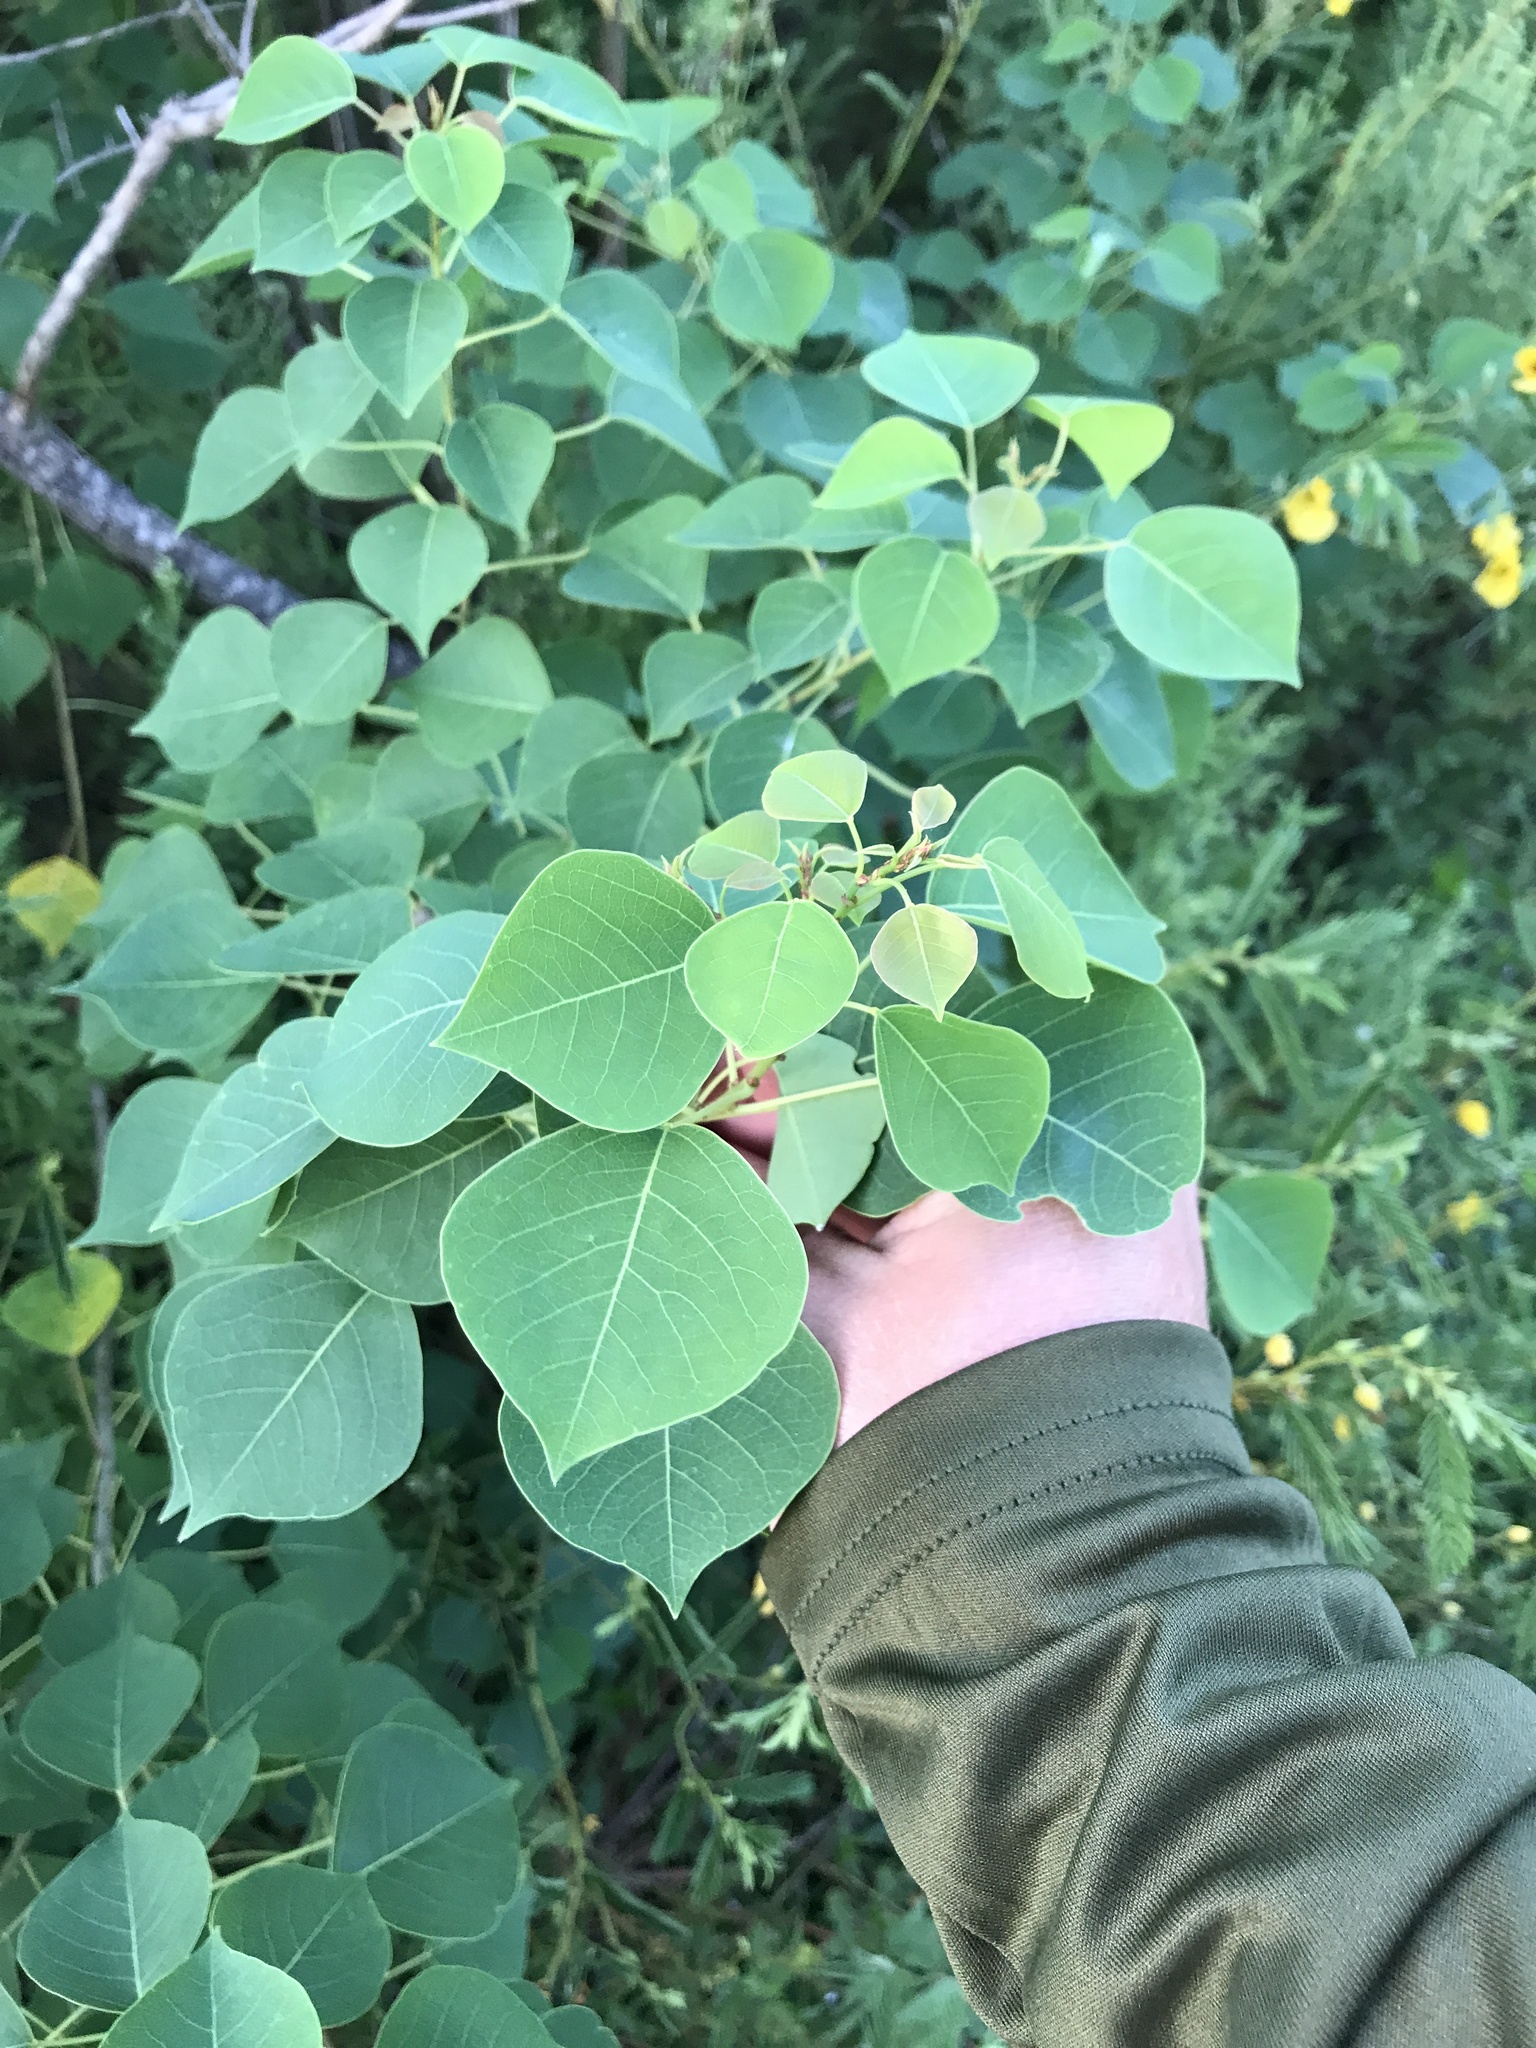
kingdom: Plantae
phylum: Tracheophyta
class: Magnoliopsida
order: Malpighiales
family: Euphorbiaceae
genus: Triadica
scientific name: Triadica sebifera
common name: Chinese tallow
